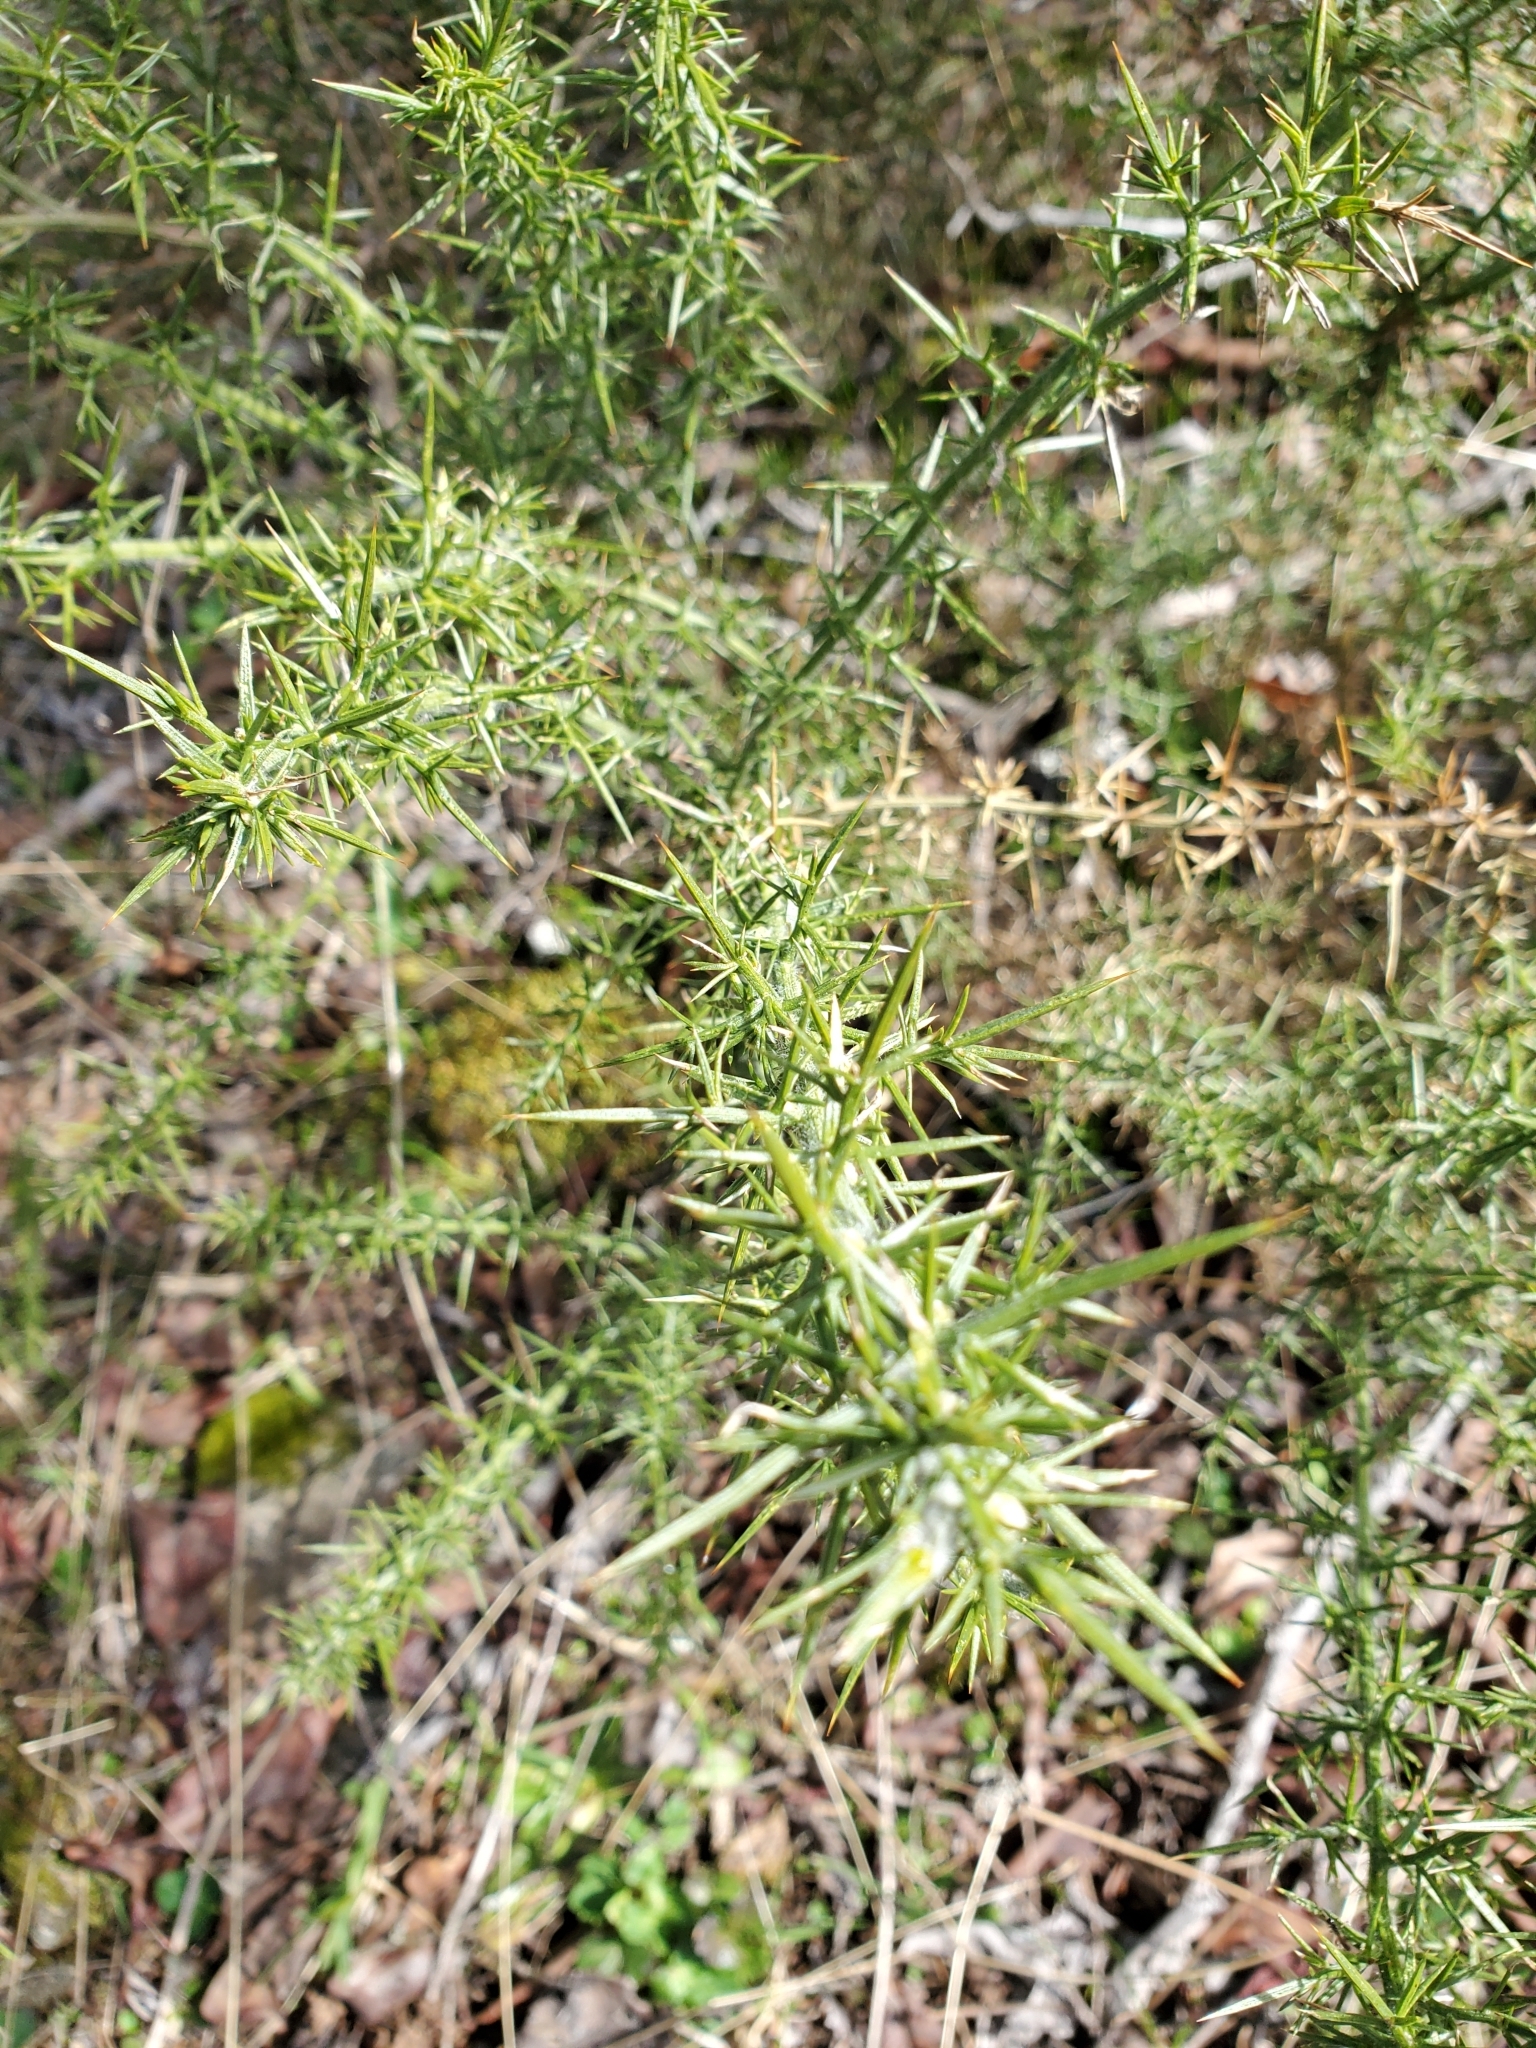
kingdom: Plantae
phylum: Tracheophyta
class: Magnoliopsida
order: Fabales
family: Fabaceae
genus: Ulex
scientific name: Ulex europaeus
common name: Common gorse
